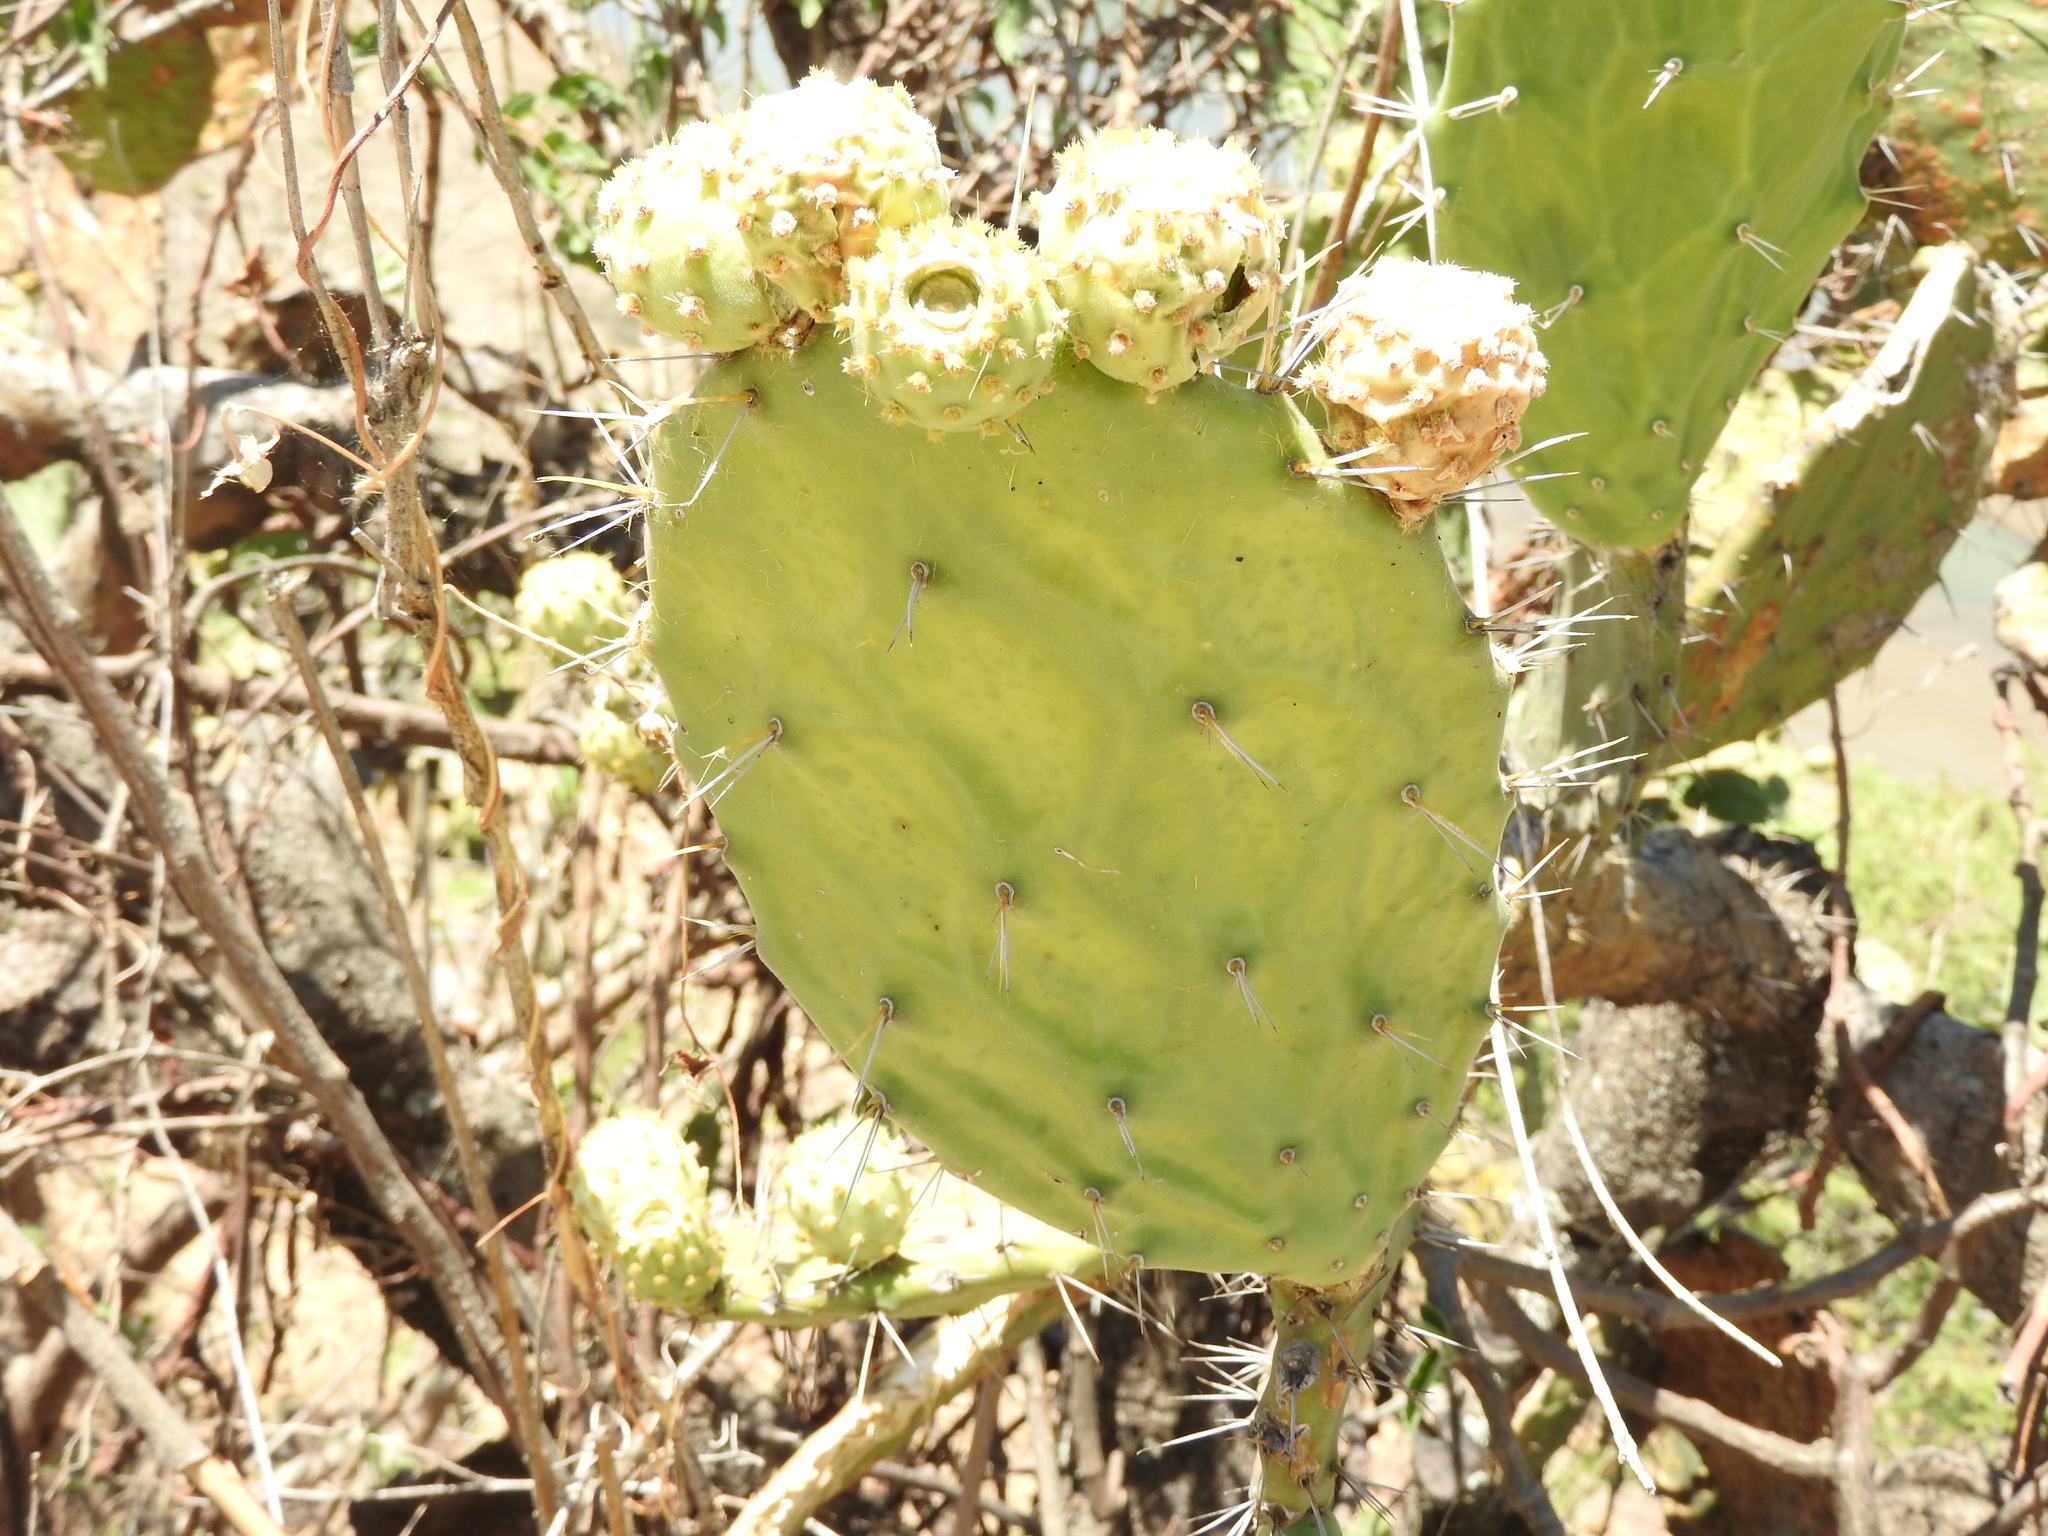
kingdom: Plantae
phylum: Tracheophyta
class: Magnoliopsida
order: Caryophyllales
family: Cactaceae
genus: Opuntia
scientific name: Opuntia tomentosa
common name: Woollyjoint pricklypear
